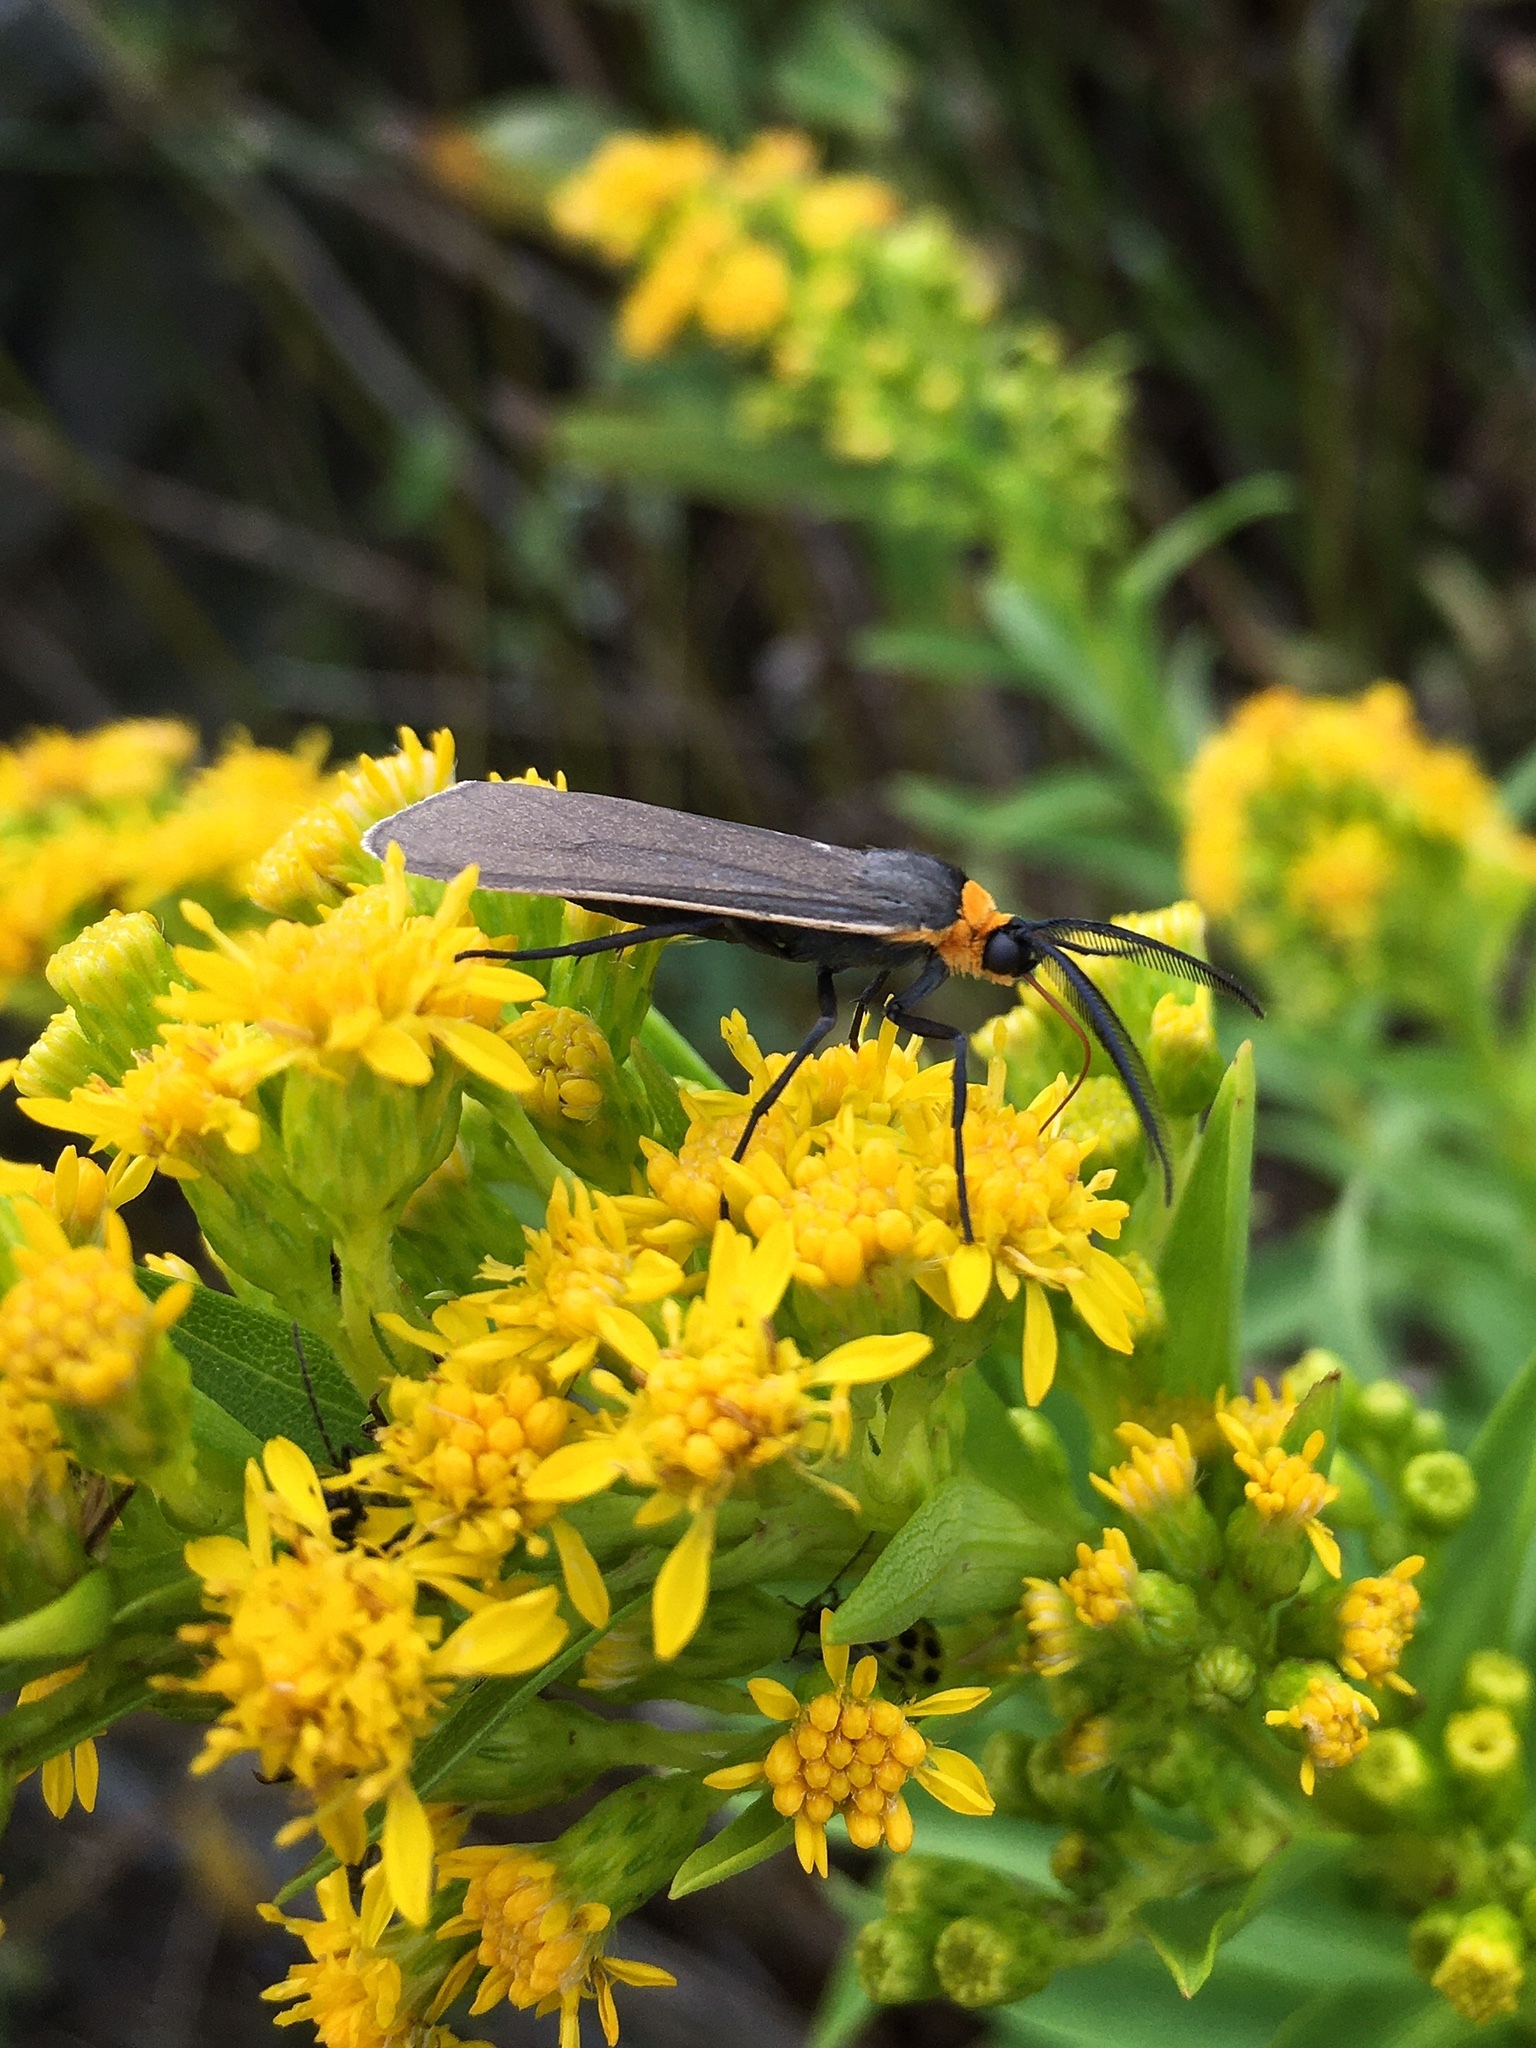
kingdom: Animalia
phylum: Arthropoda
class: Insecta
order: Lepidoptera
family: Erebidae
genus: Cisseps
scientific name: Cisseps fulvicollis
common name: Yellow-collared scape moth
